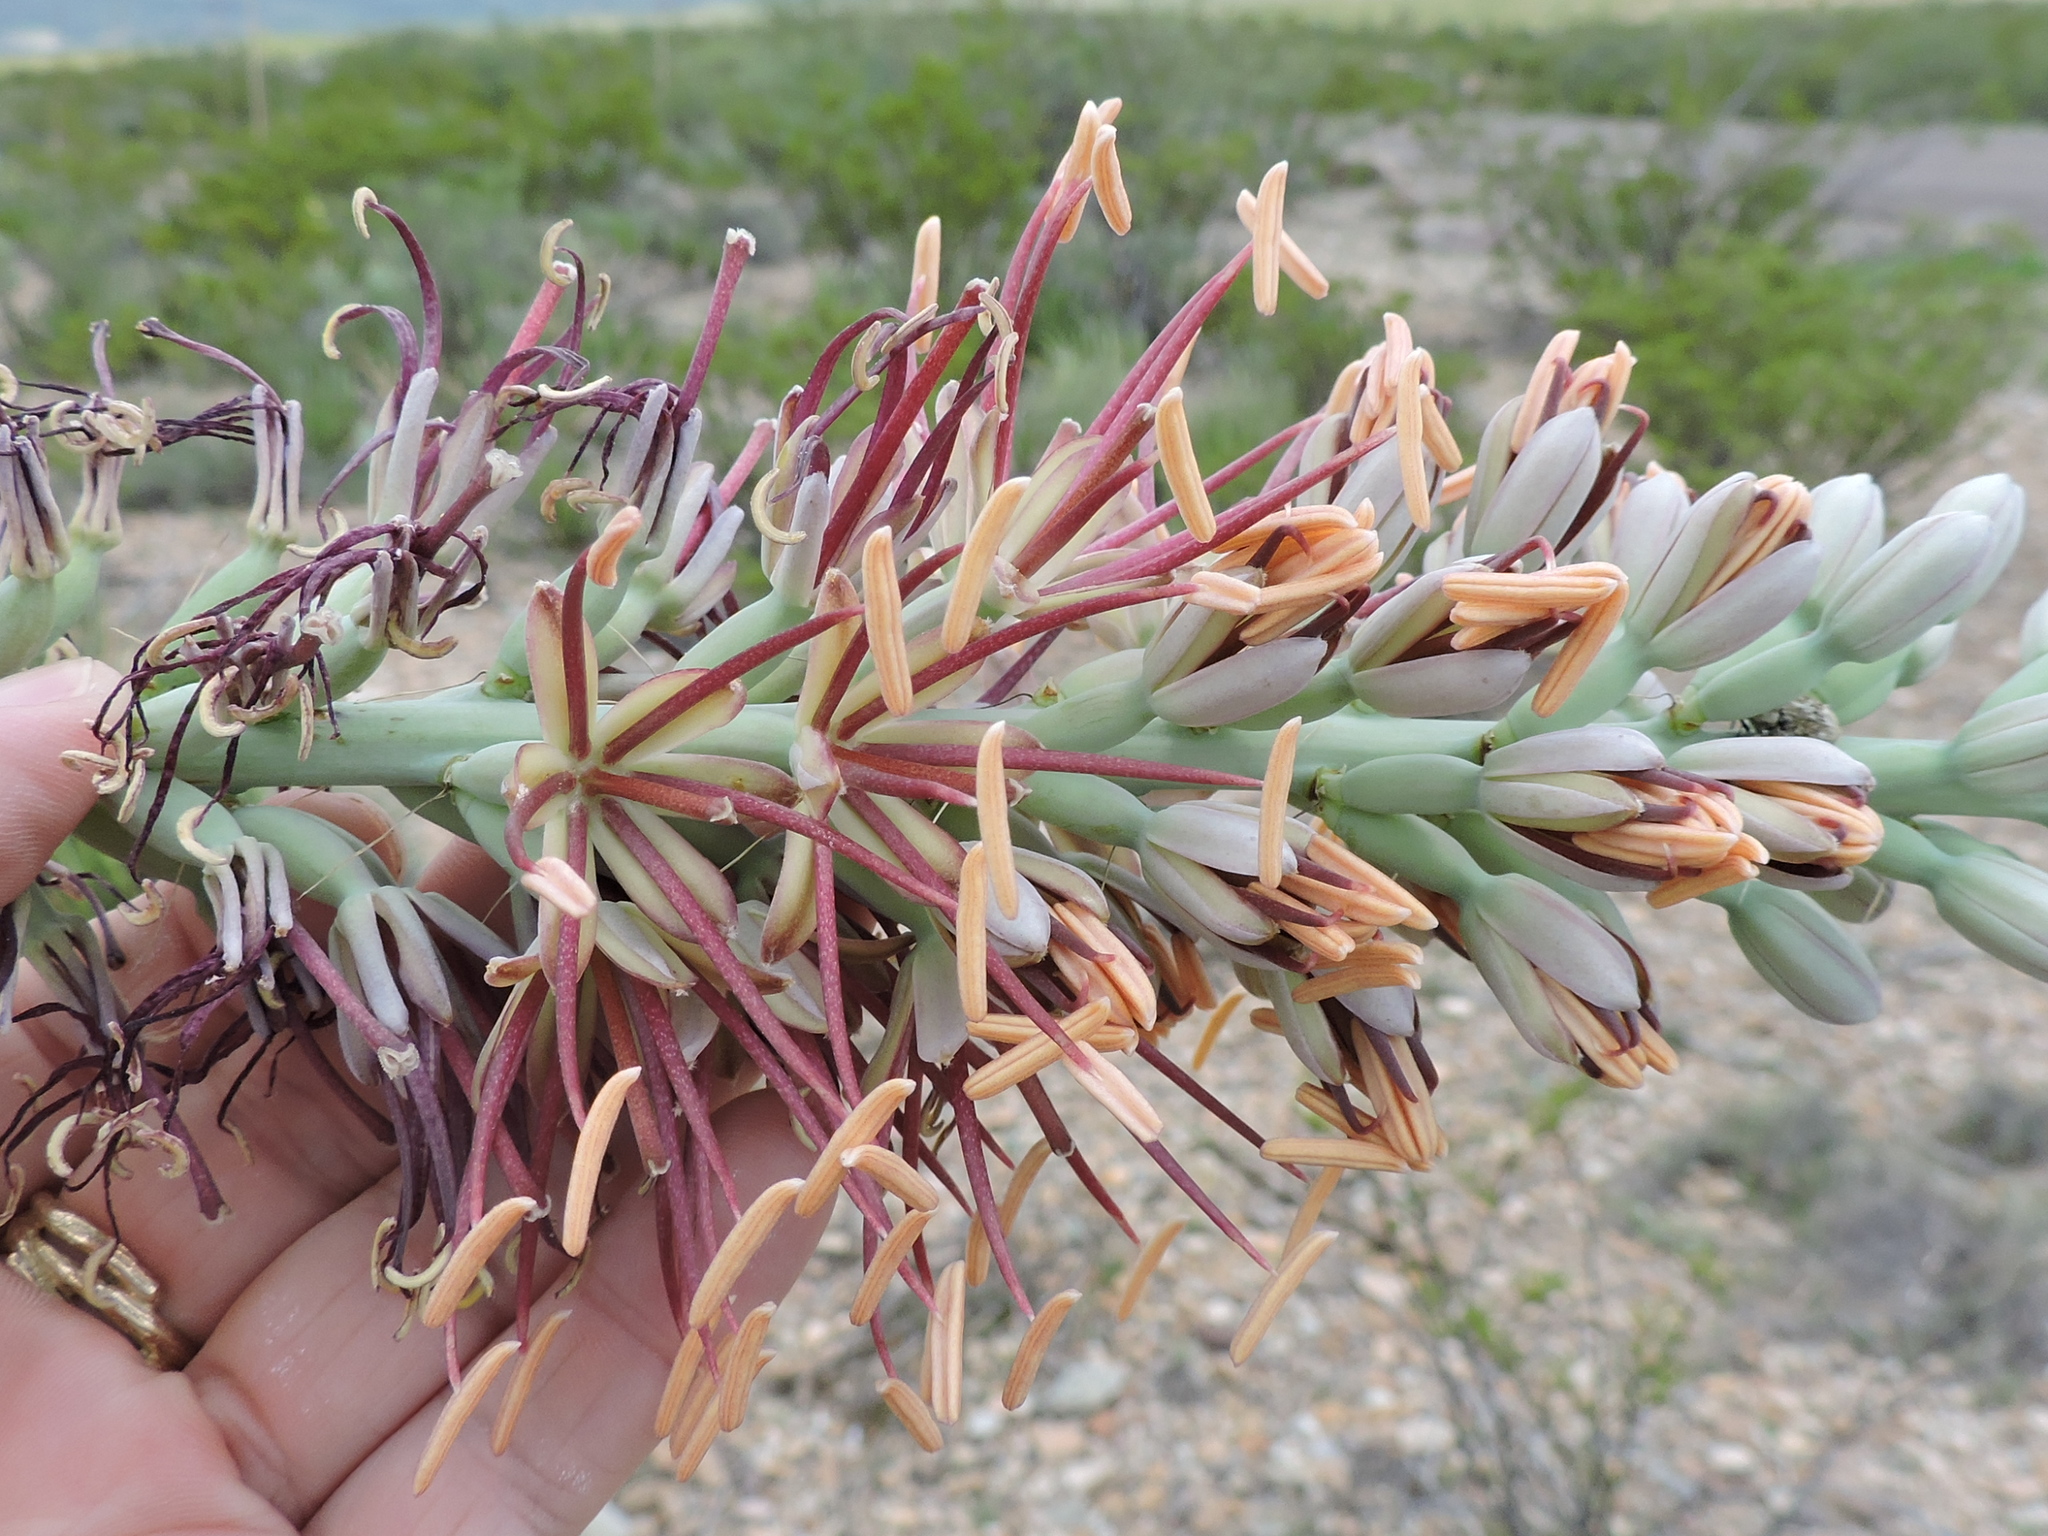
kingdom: Plantae
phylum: Tracheophyta
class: Liliopsida
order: Asparagales
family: Asparagaceae
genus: Agave
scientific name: Agave lechuguilla
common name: Lecheguilla agave
